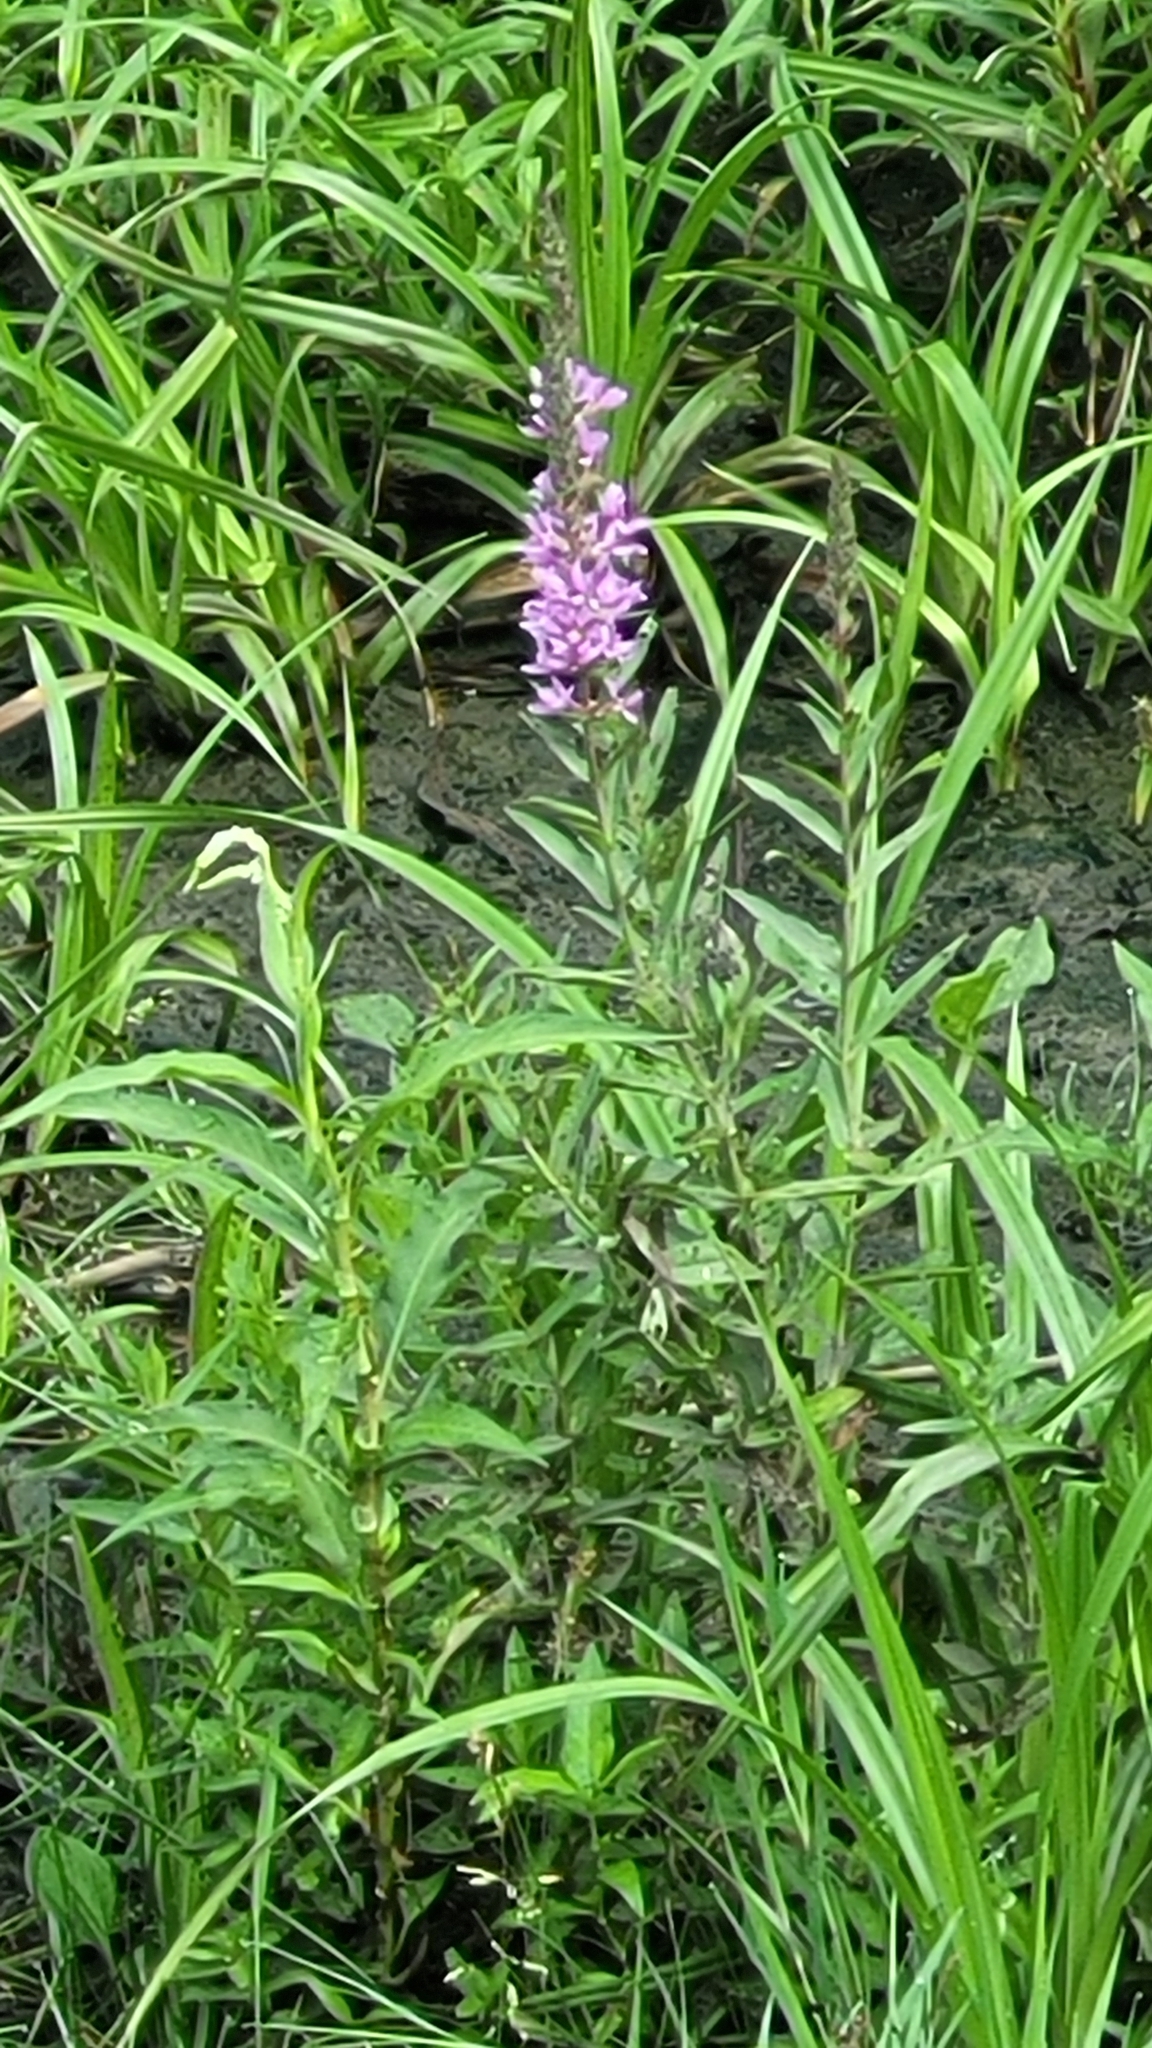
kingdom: Plantae
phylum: Tracheophyta
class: Magnoliopsida
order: Myrtales
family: Lythraceae
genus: Lythrum
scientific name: Lythrum salicaria
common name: Purple loosestrife
